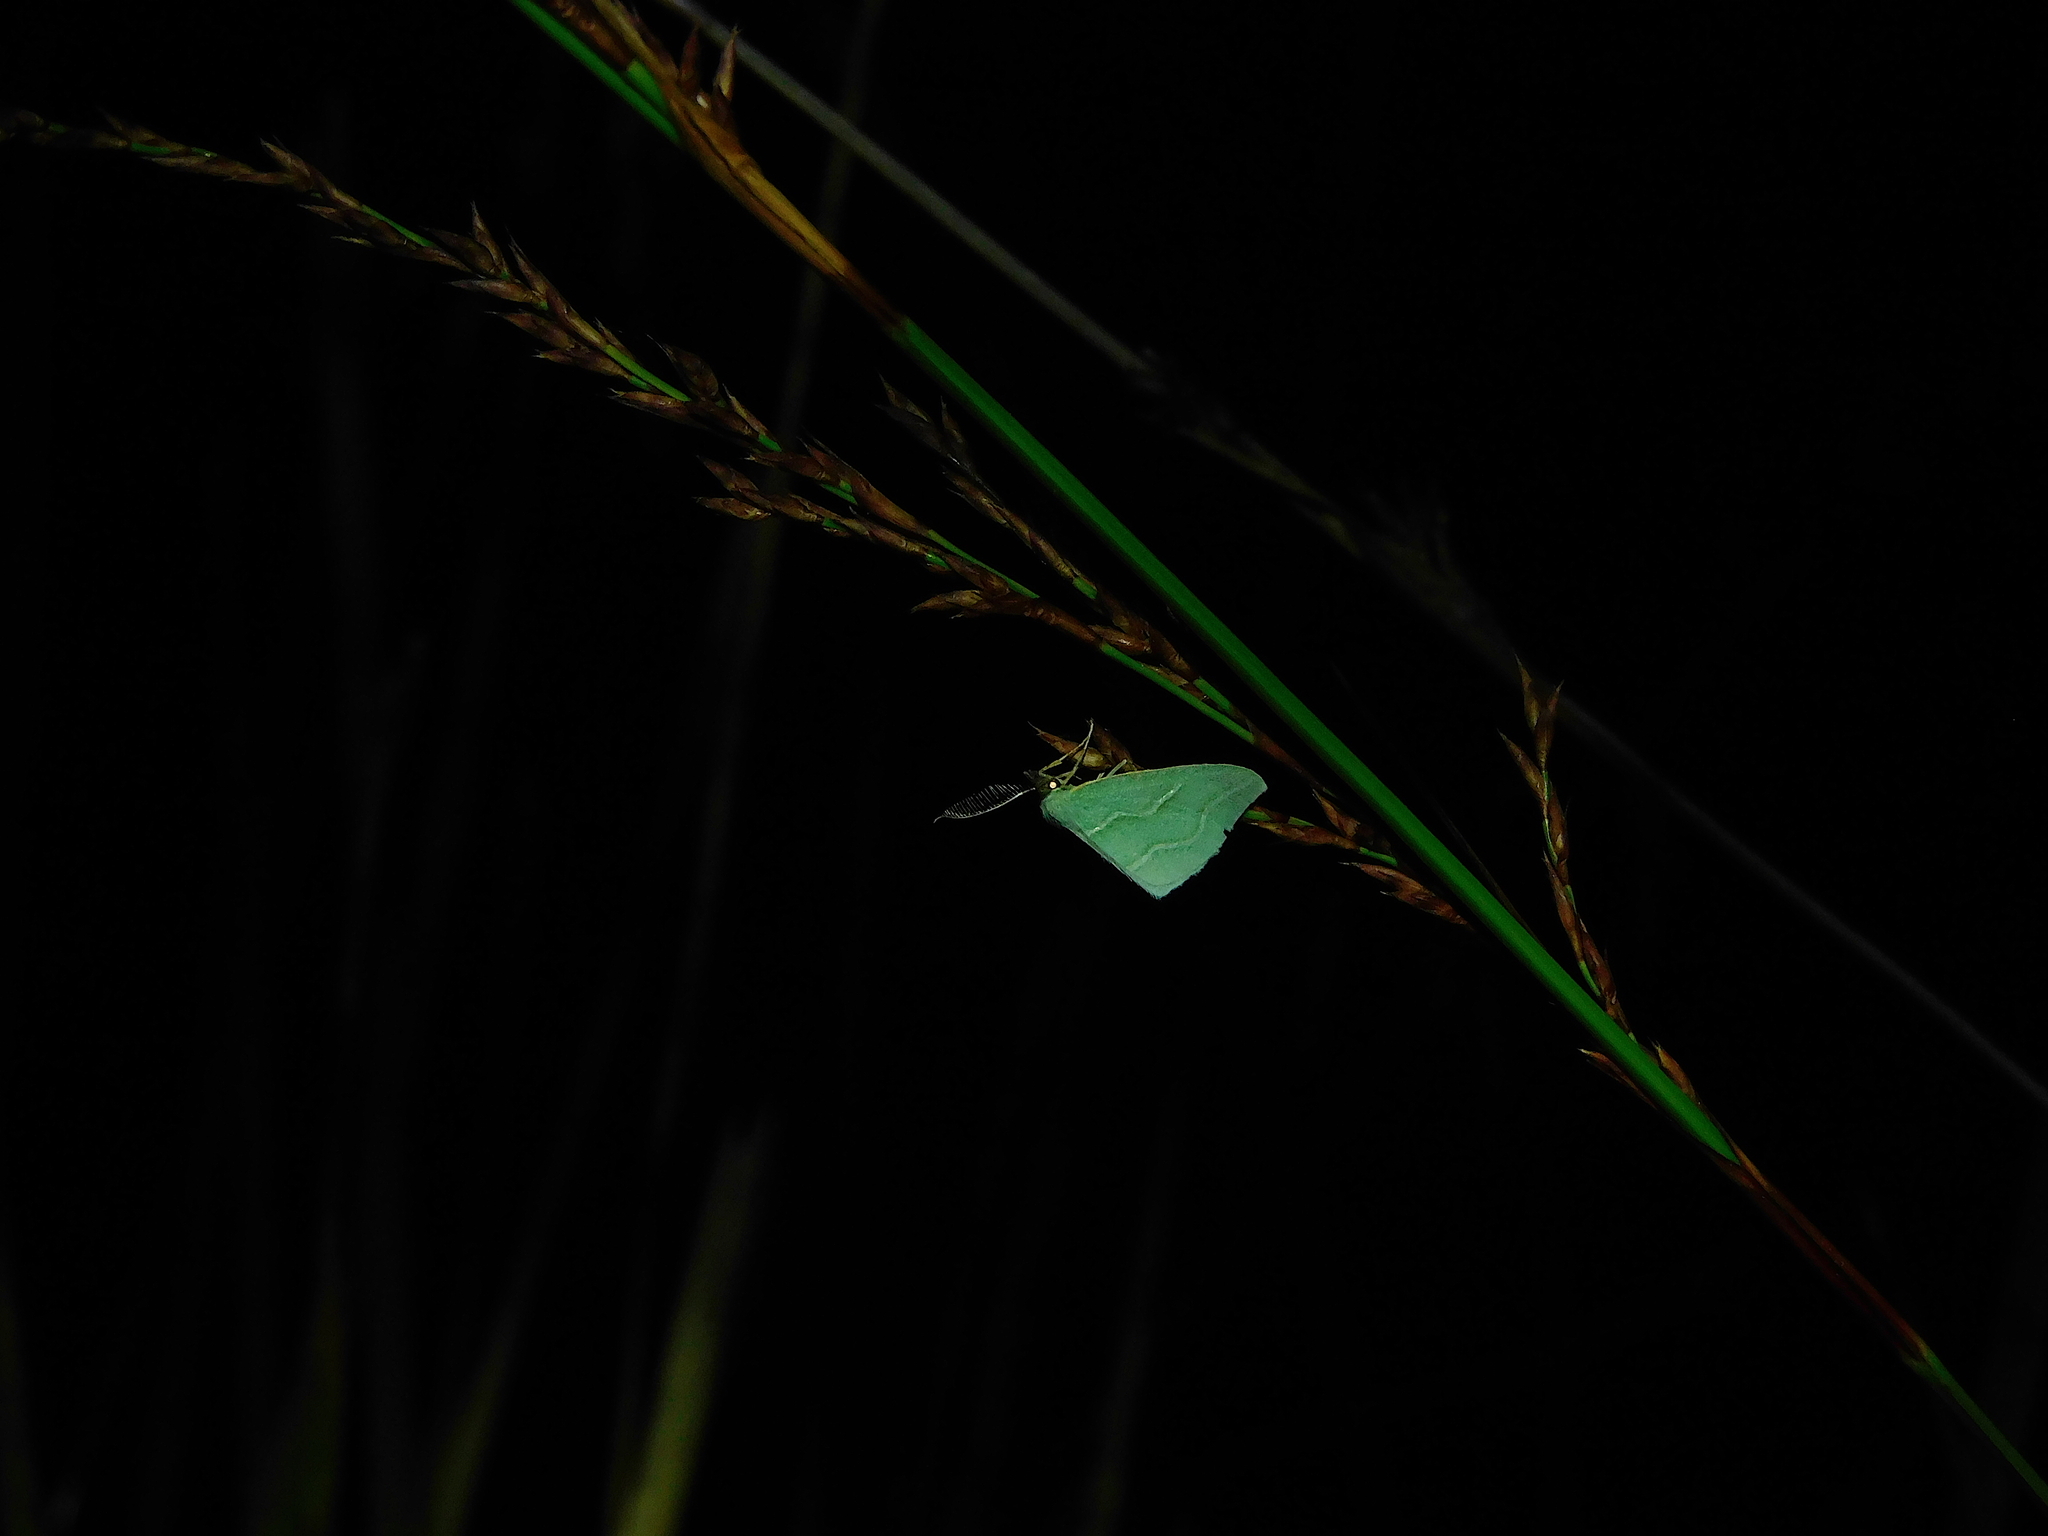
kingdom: Animalia
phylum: Arthropoda
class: Insecta
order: Lepidoptera
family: Geometridae
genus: Euloxia
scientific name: Euloxia meandraria
